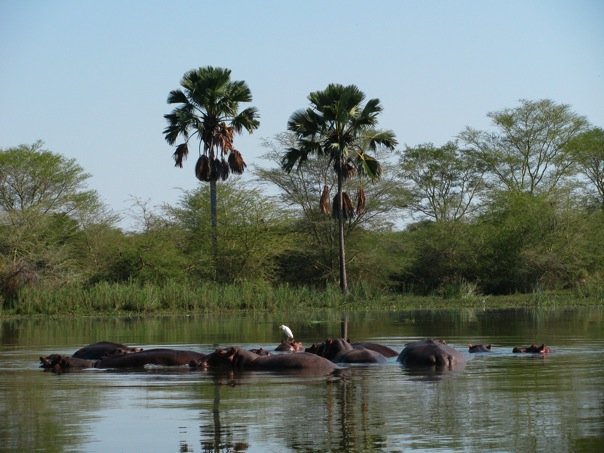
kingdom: Animalia
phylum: Chordata
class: Mammalia
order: Artiodactyla
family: Hippopotamidae
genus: Hippopotamus
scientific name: Hippopotamus amphibius
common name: Common hippopotamus
